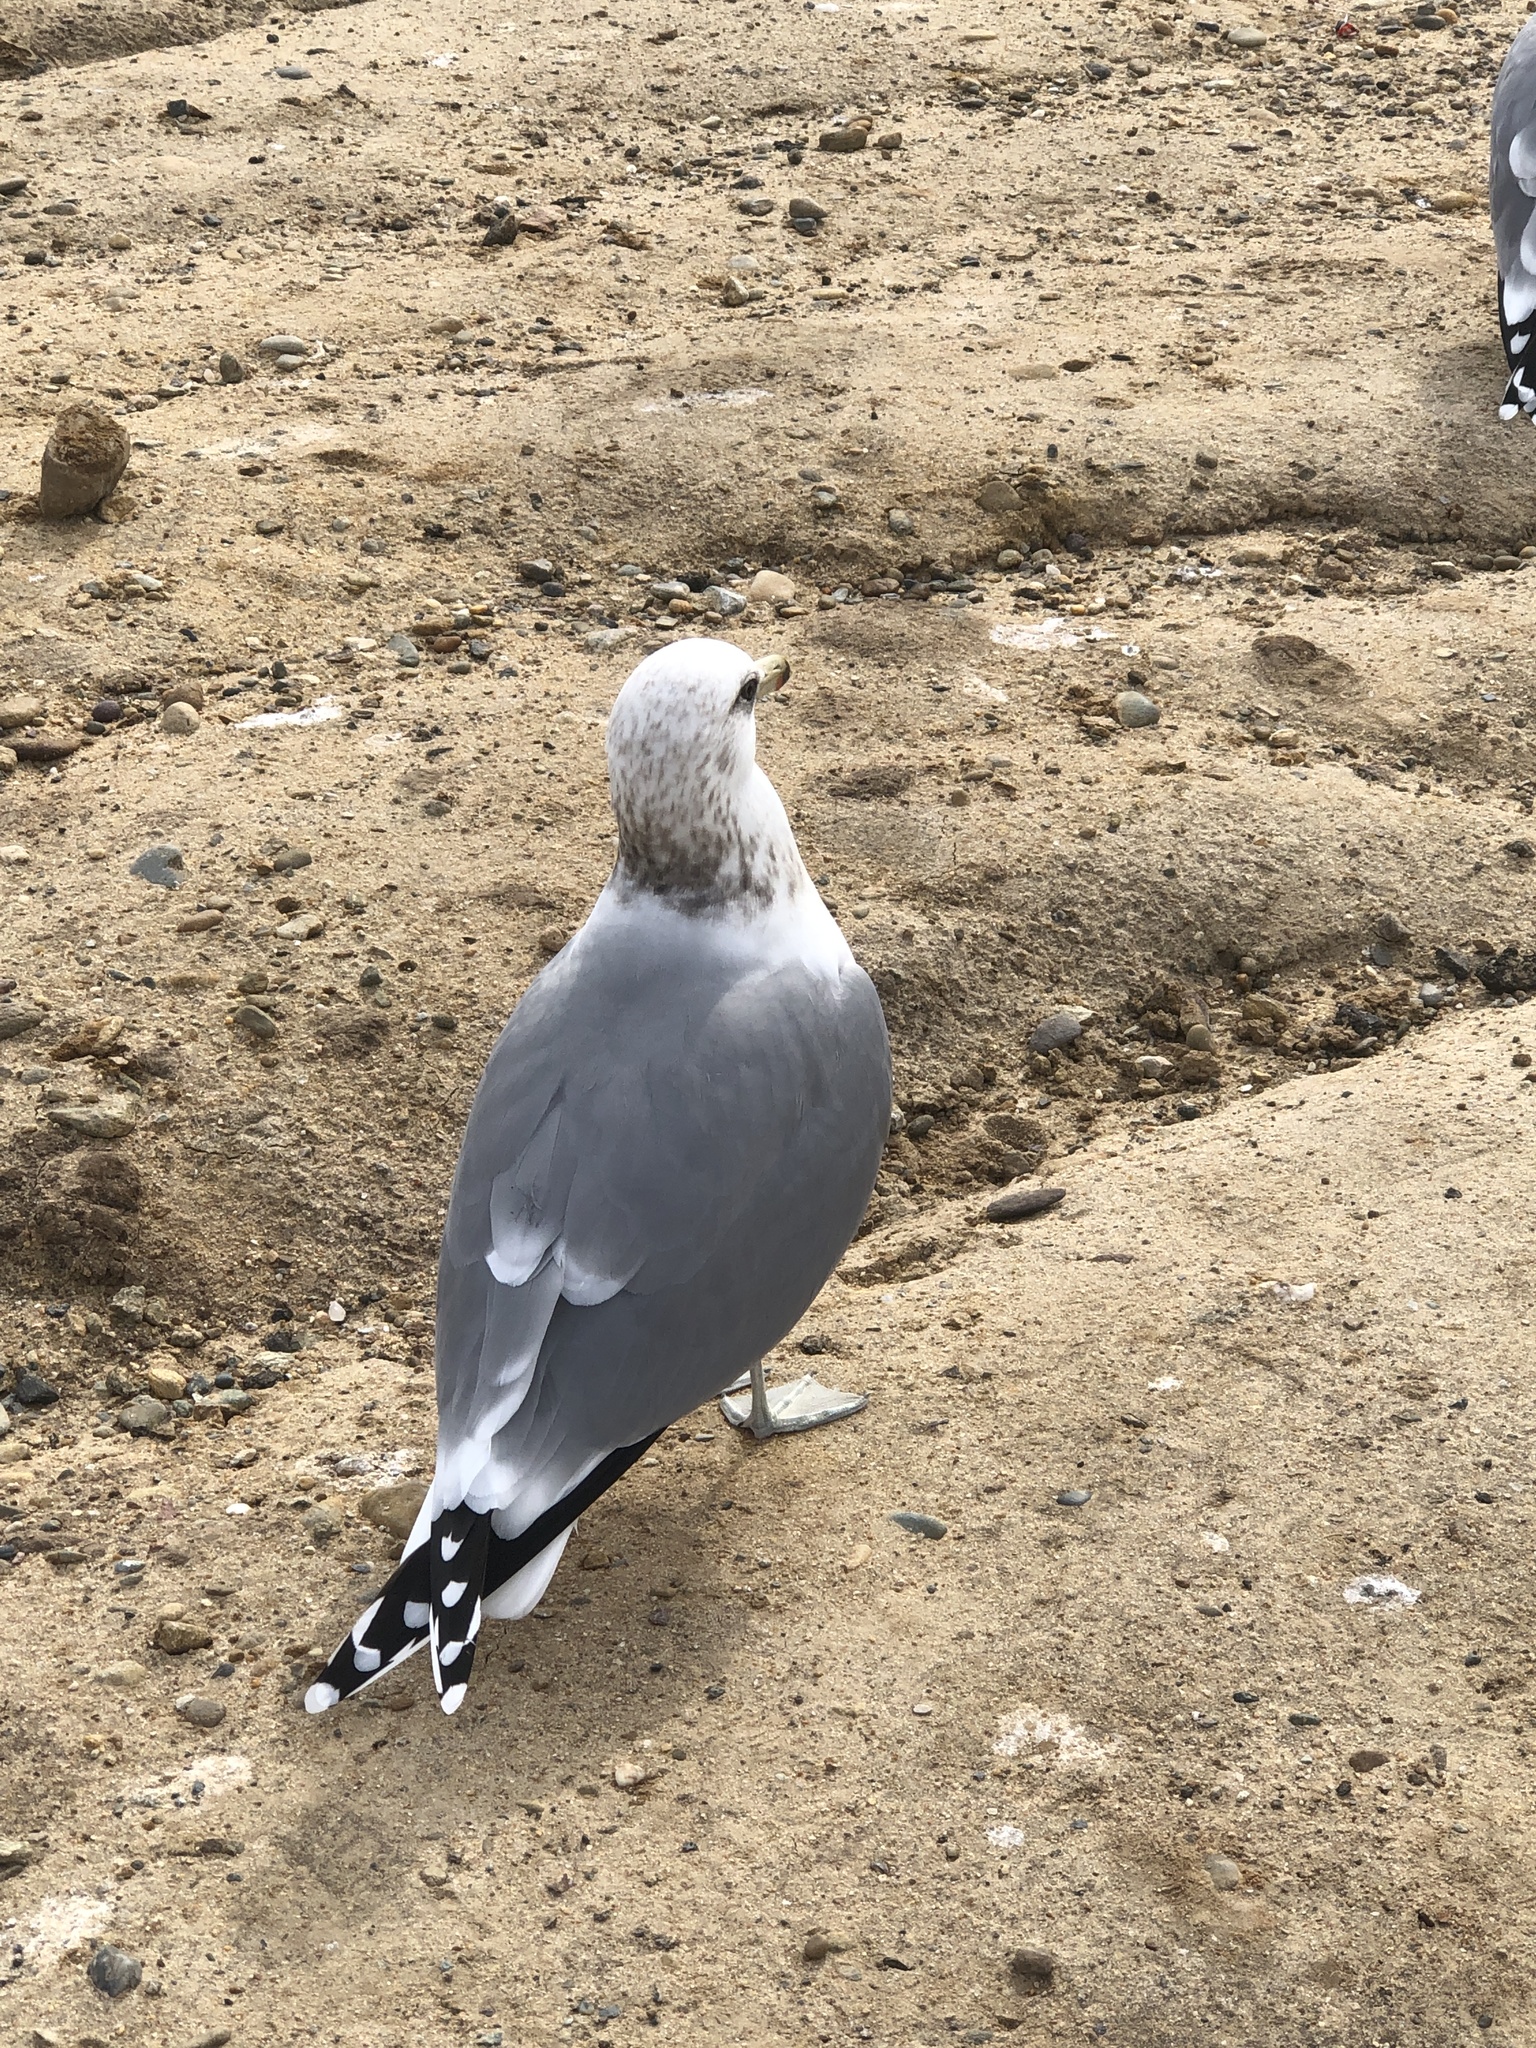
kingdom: Animalia
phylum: Chordata
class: Aves
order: Charadriiformes
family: Laridae
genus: Larus
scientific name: Larus californicus
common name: California gull
